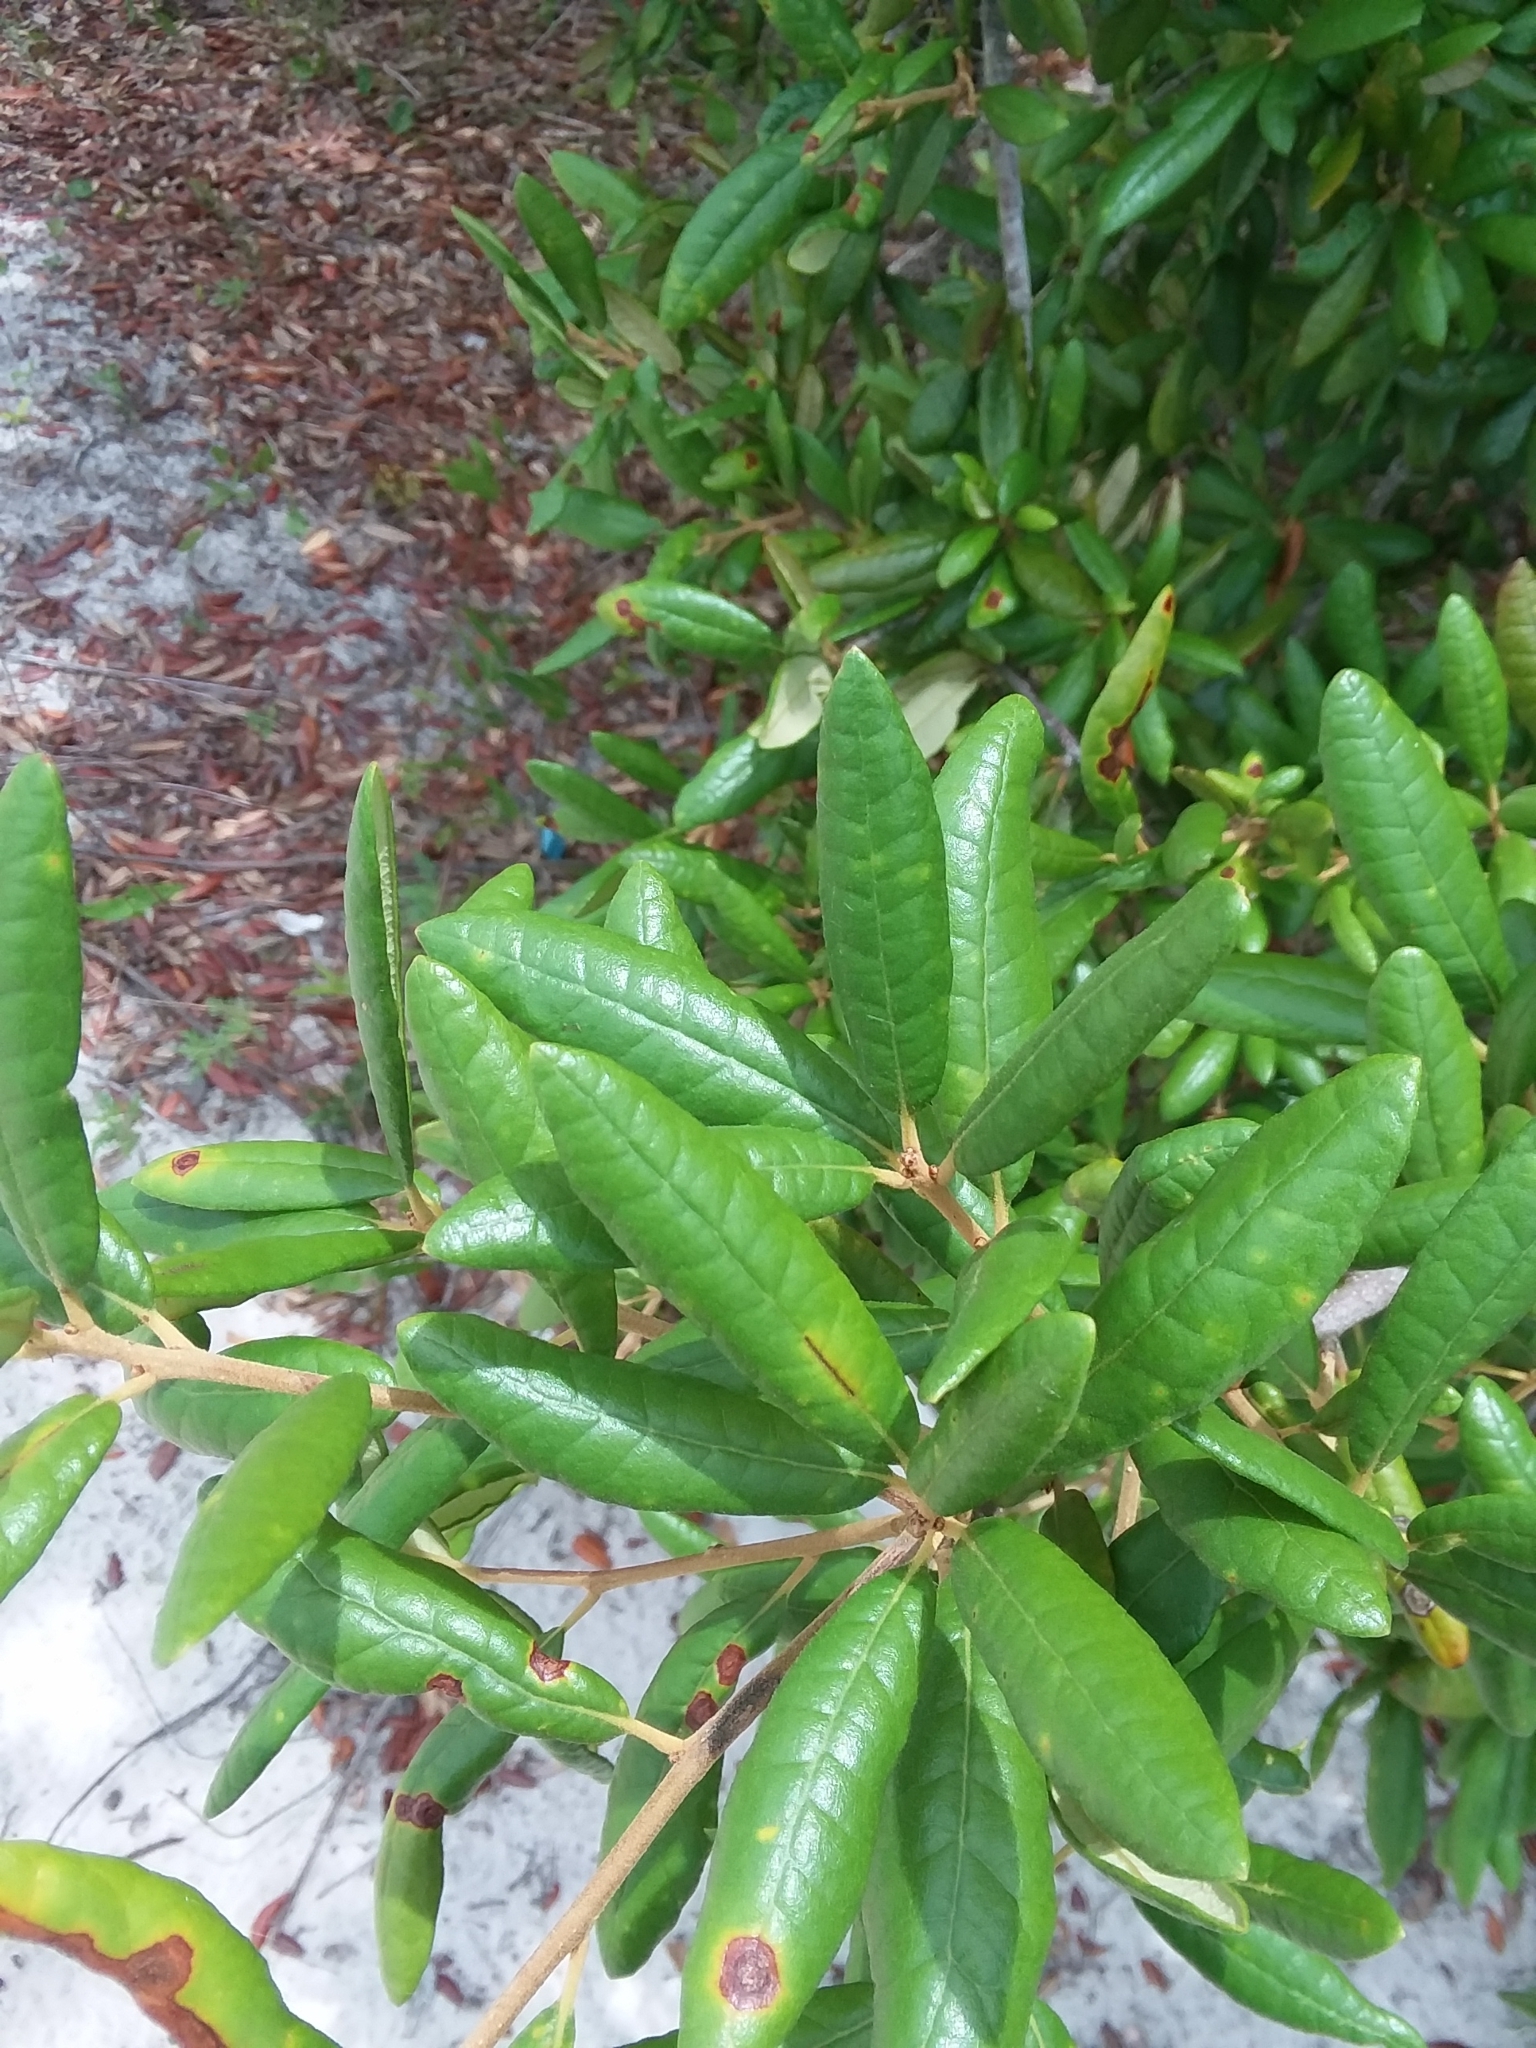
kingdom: Plantae
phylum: Tracheophyta
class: Magnoliopsida
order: Fagales
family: Fagaceae
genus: Quercus
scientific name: Quercus geminata
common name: Sand live oak
